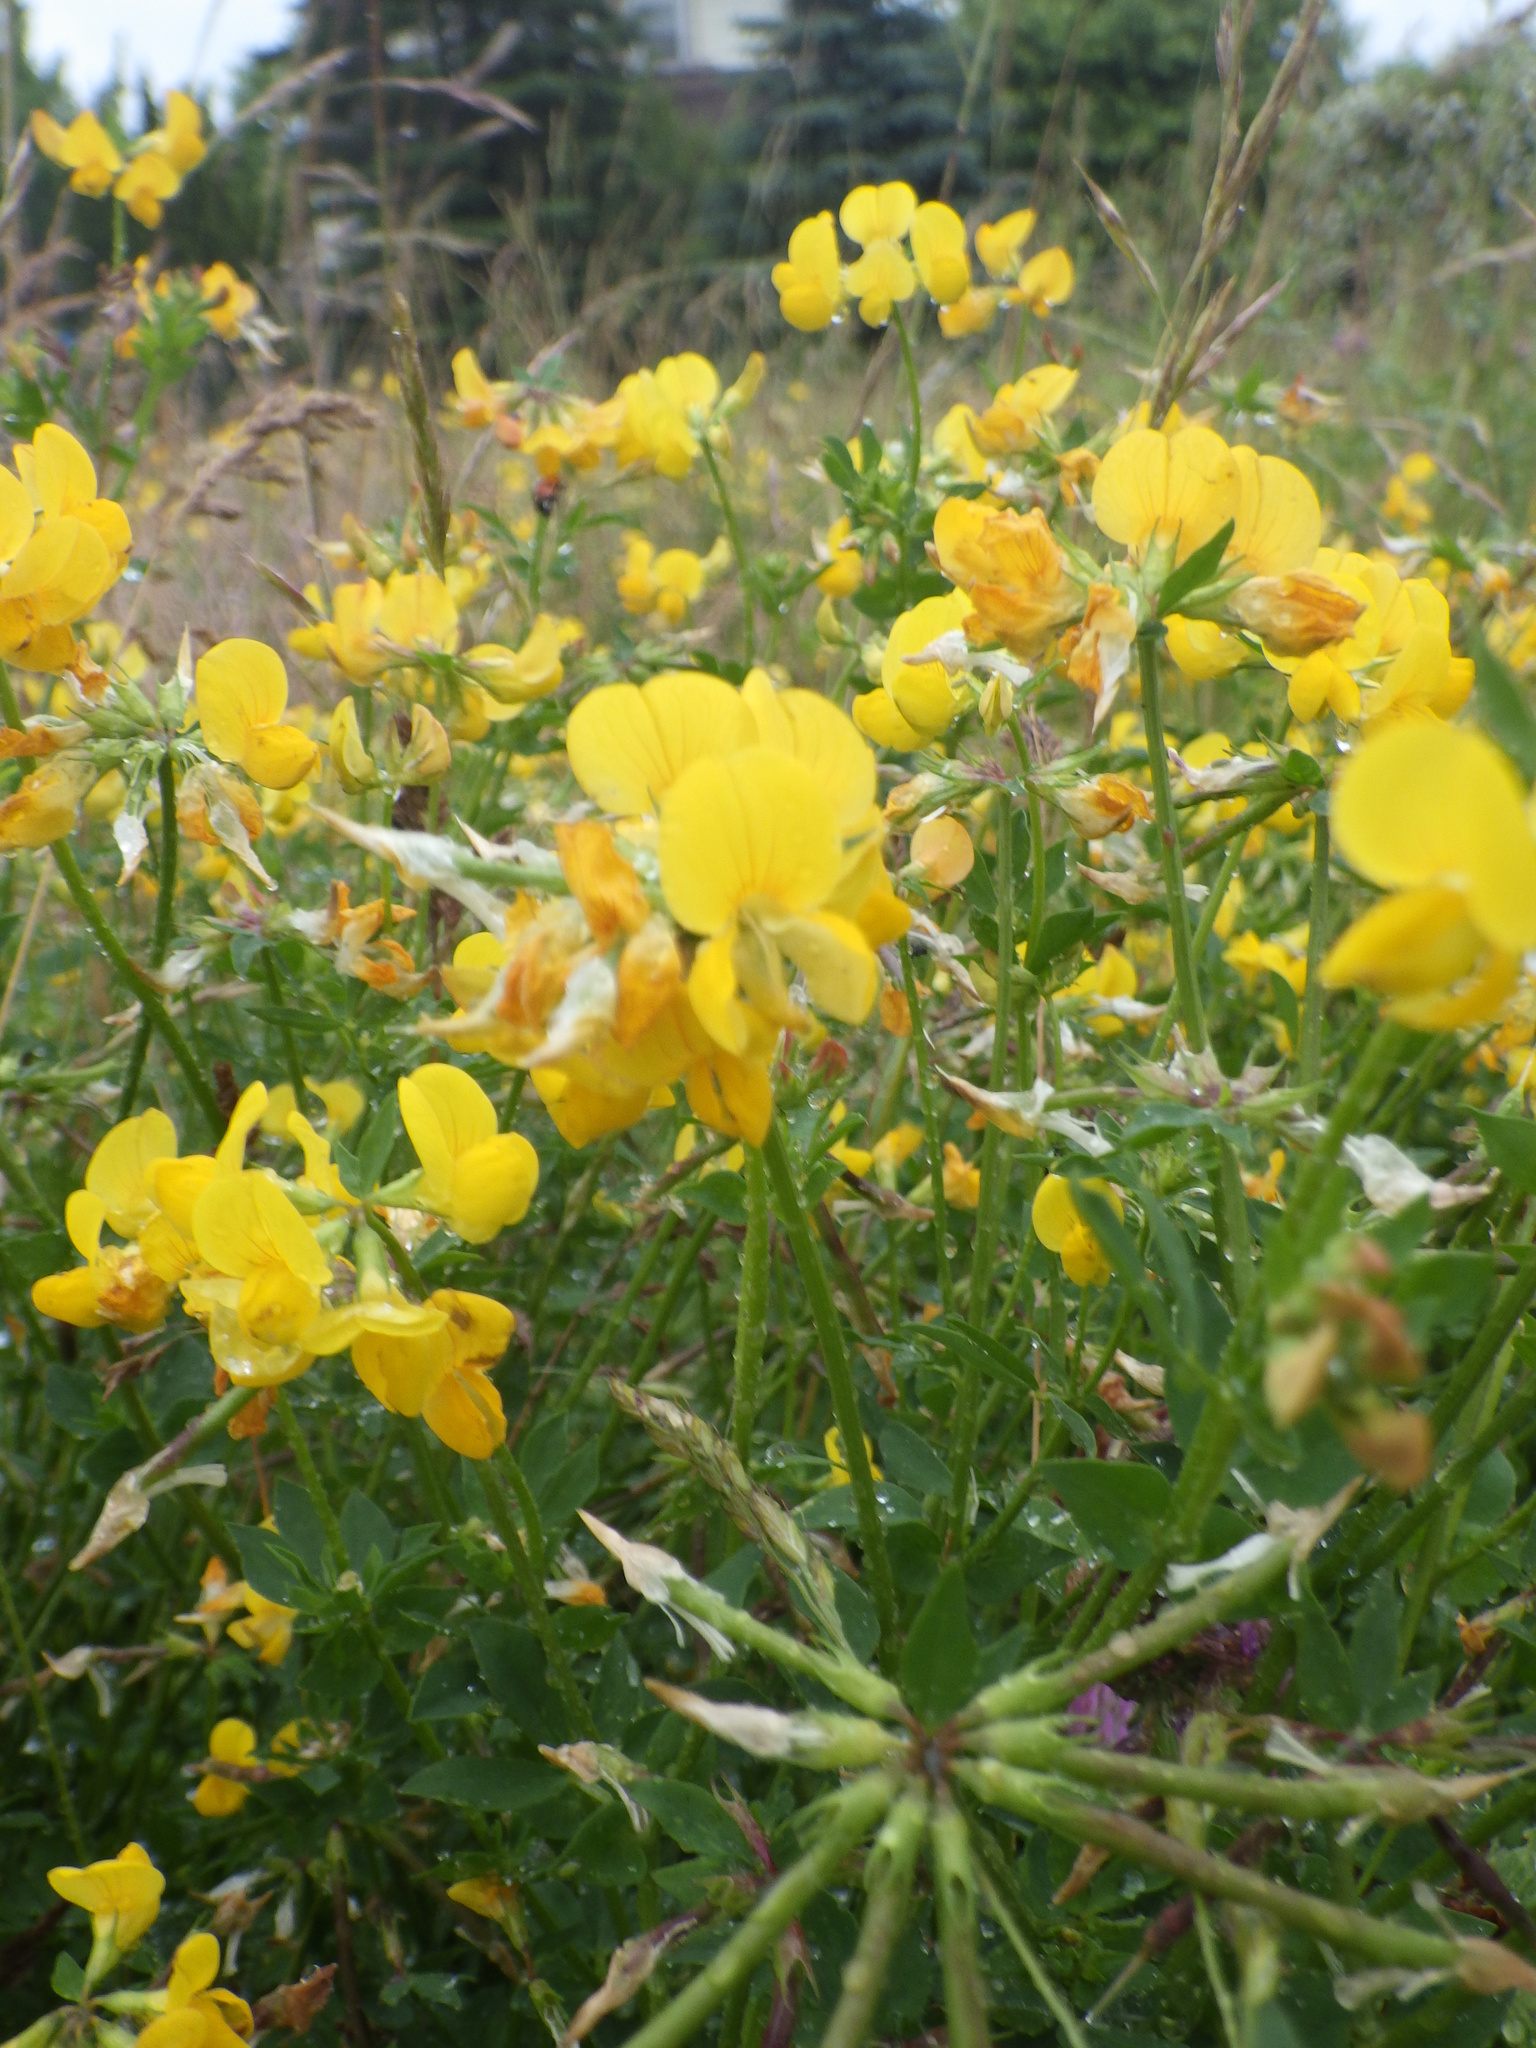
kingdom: Plantae
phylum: Tracheophyta
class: Magnoliopsida
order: Fabales
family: Fabaceae
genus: Lotus
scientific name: Lotus corniculatus
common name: Common bird's-foot-trefoil
